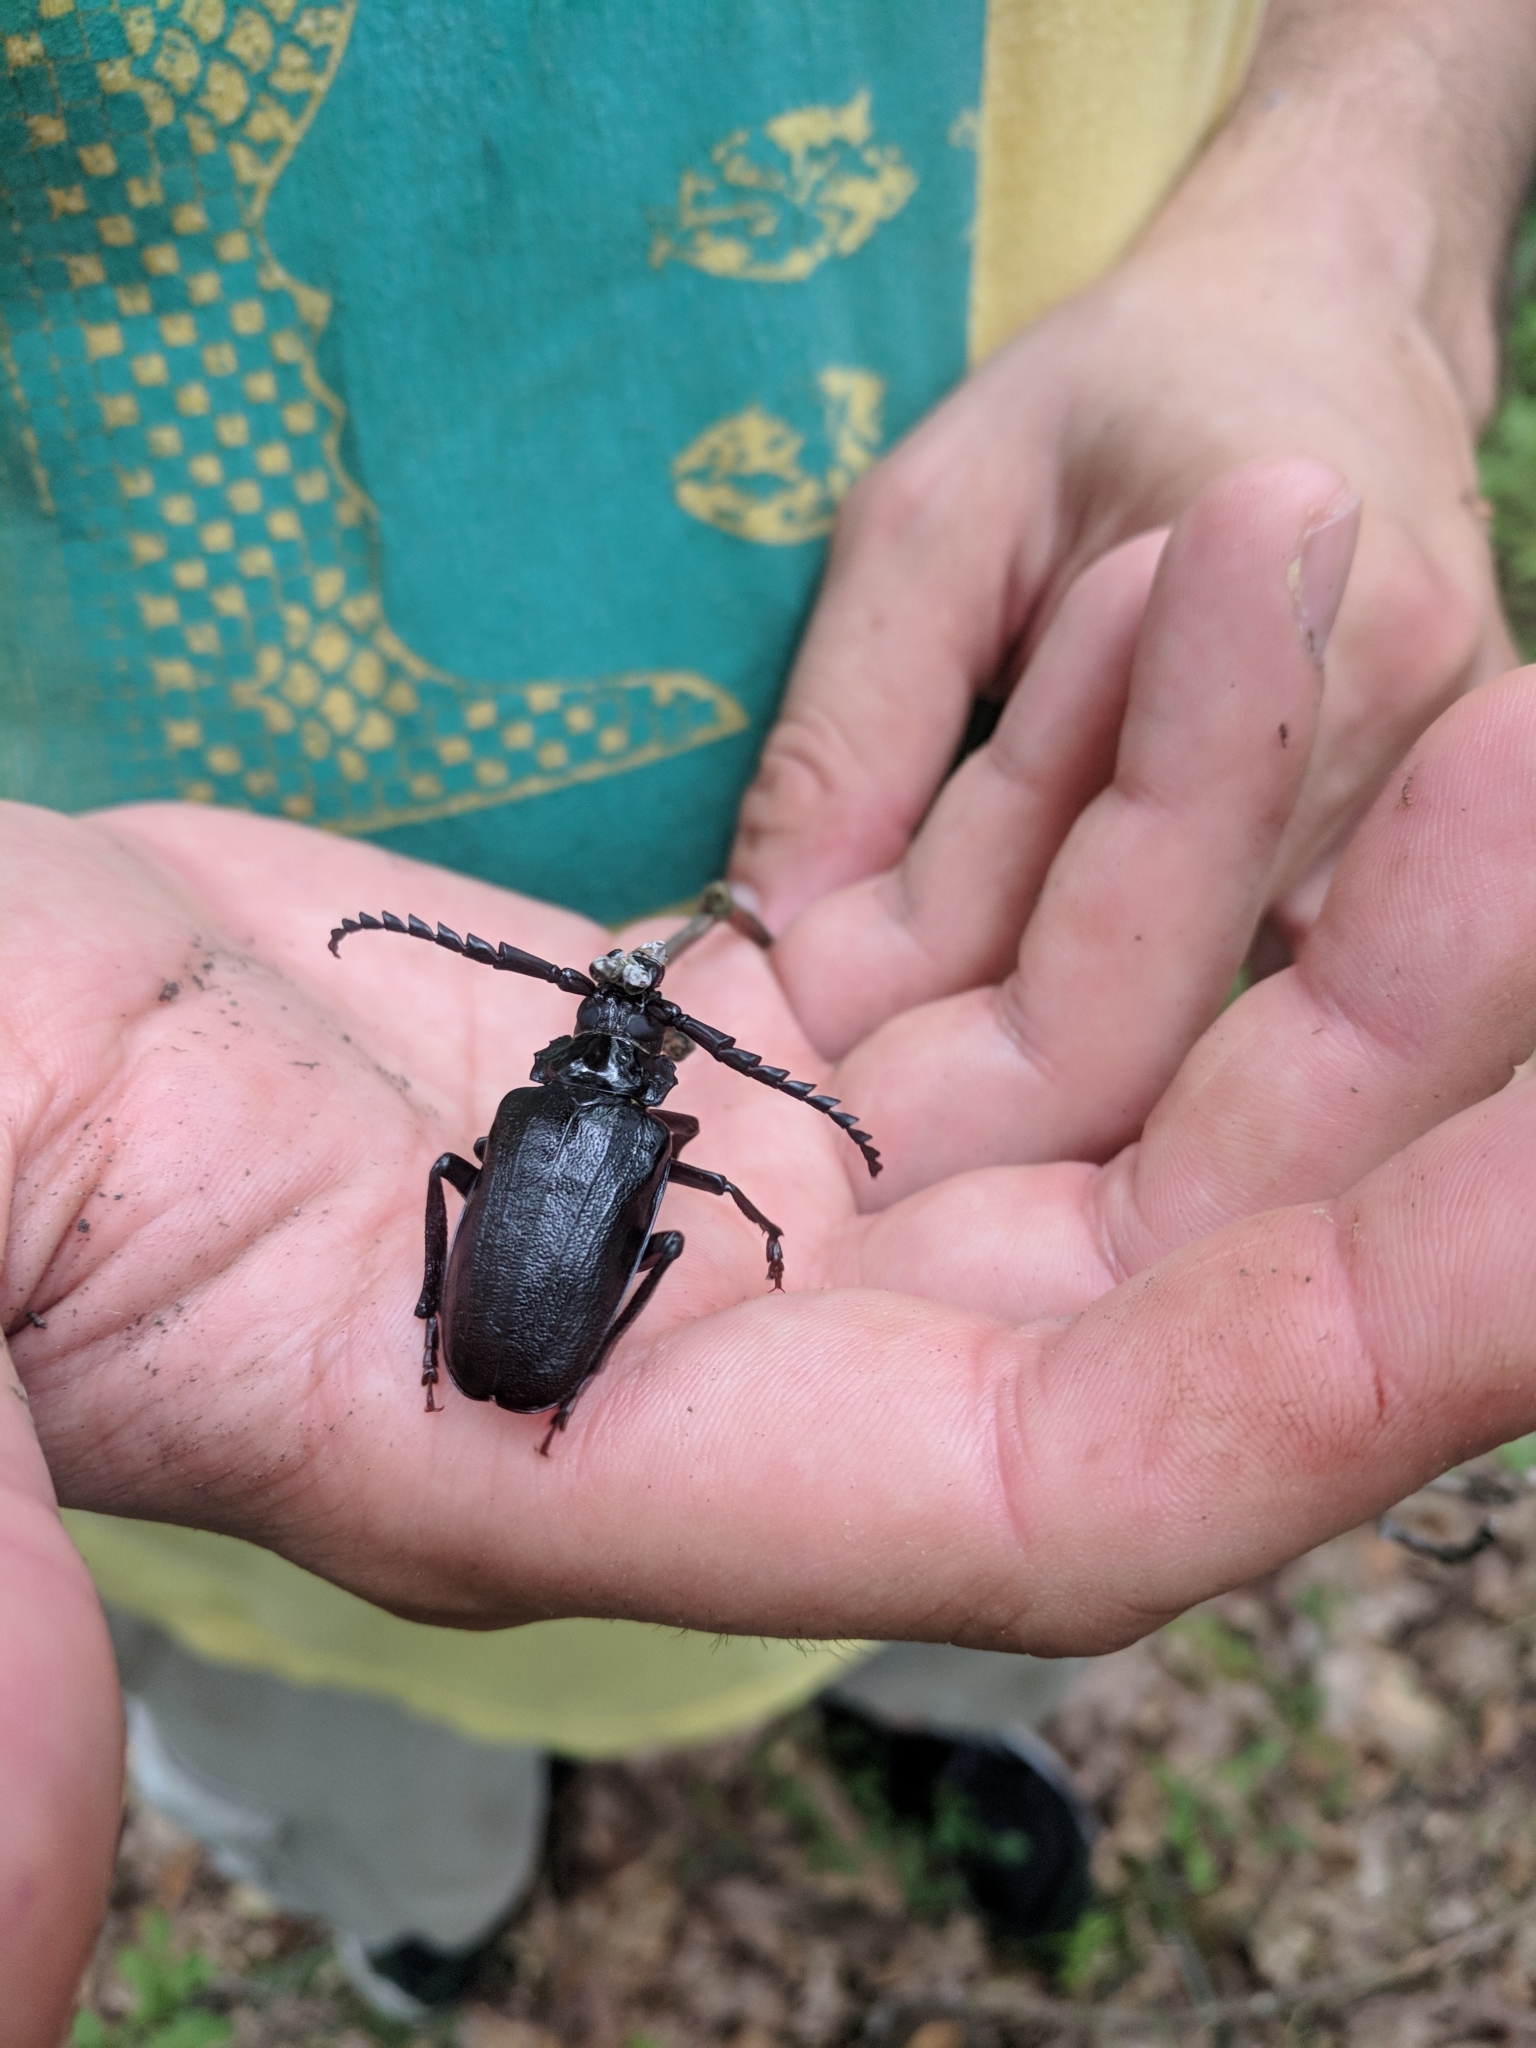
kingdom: Animalia
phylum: Arthropoda
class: Insecta
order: Coleoptera
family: Cerambycidae
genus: Prionus
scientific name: Prionus laticollis
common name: Broad necked prionus
